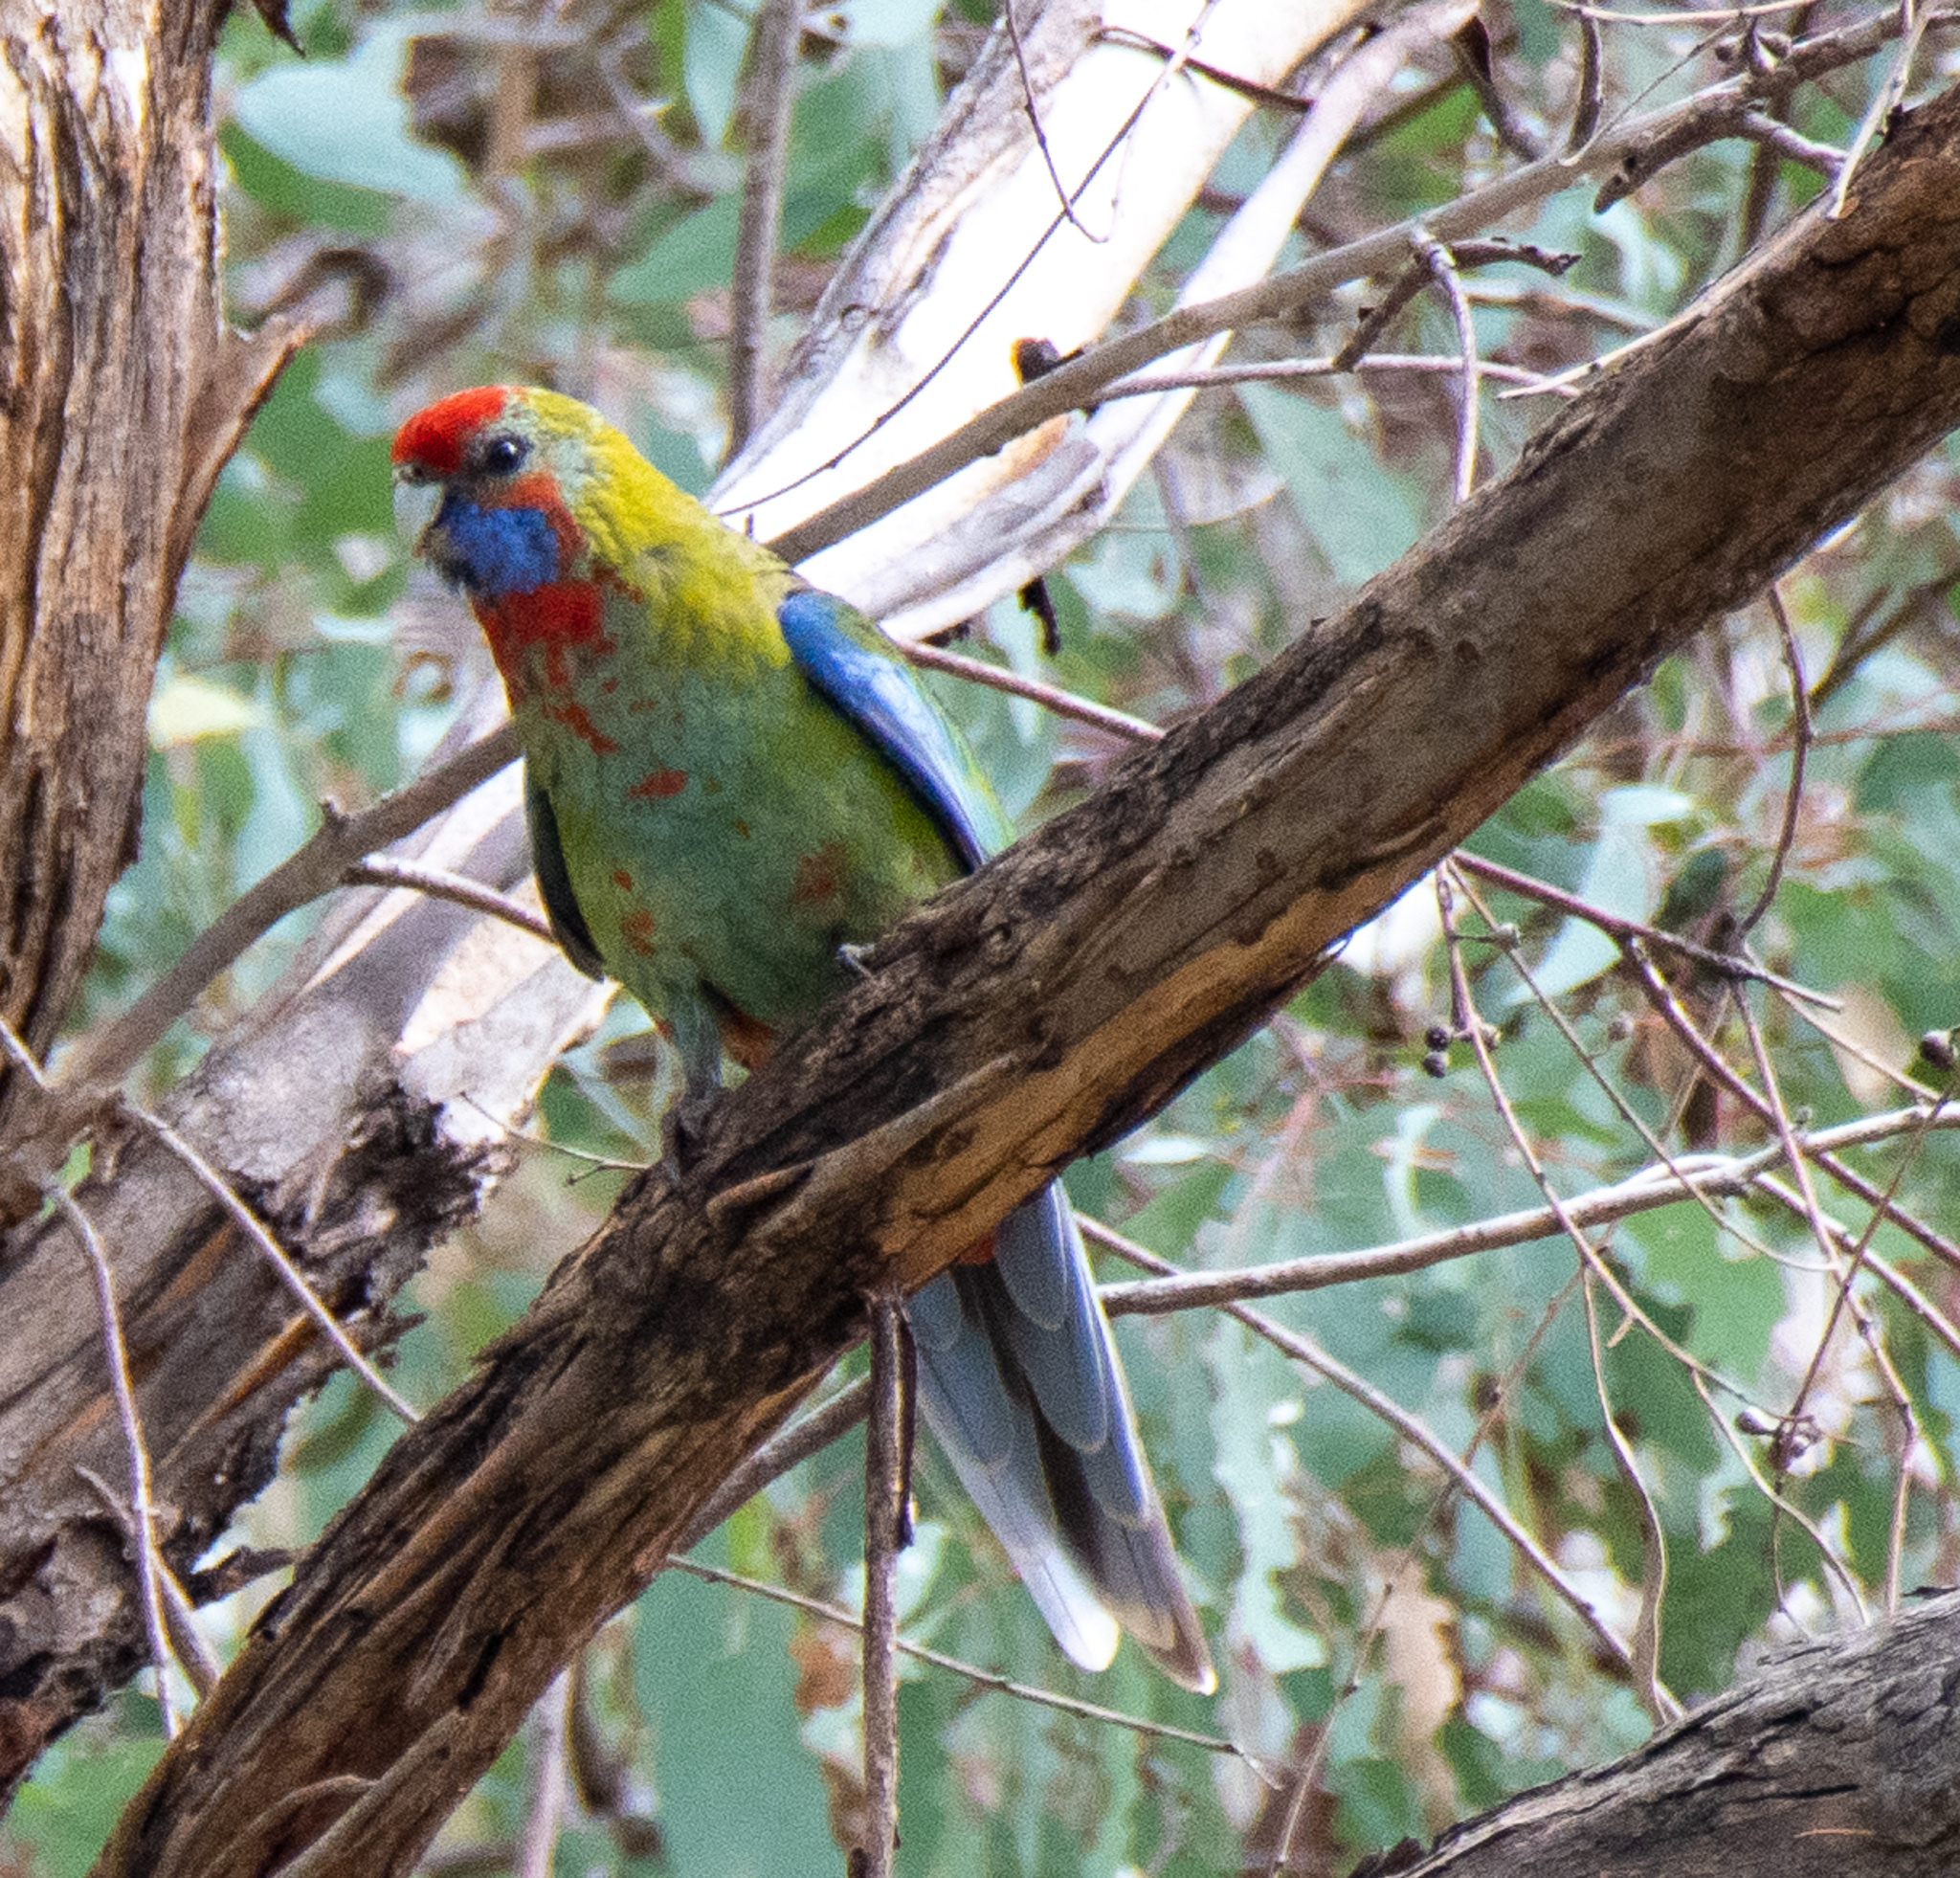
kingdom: Animalia
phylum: Chordata
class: Aves
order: Psittaciformes
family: Psittacidae
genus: Platycercus
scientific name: Platycercus elegans
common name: Crimson rosella
